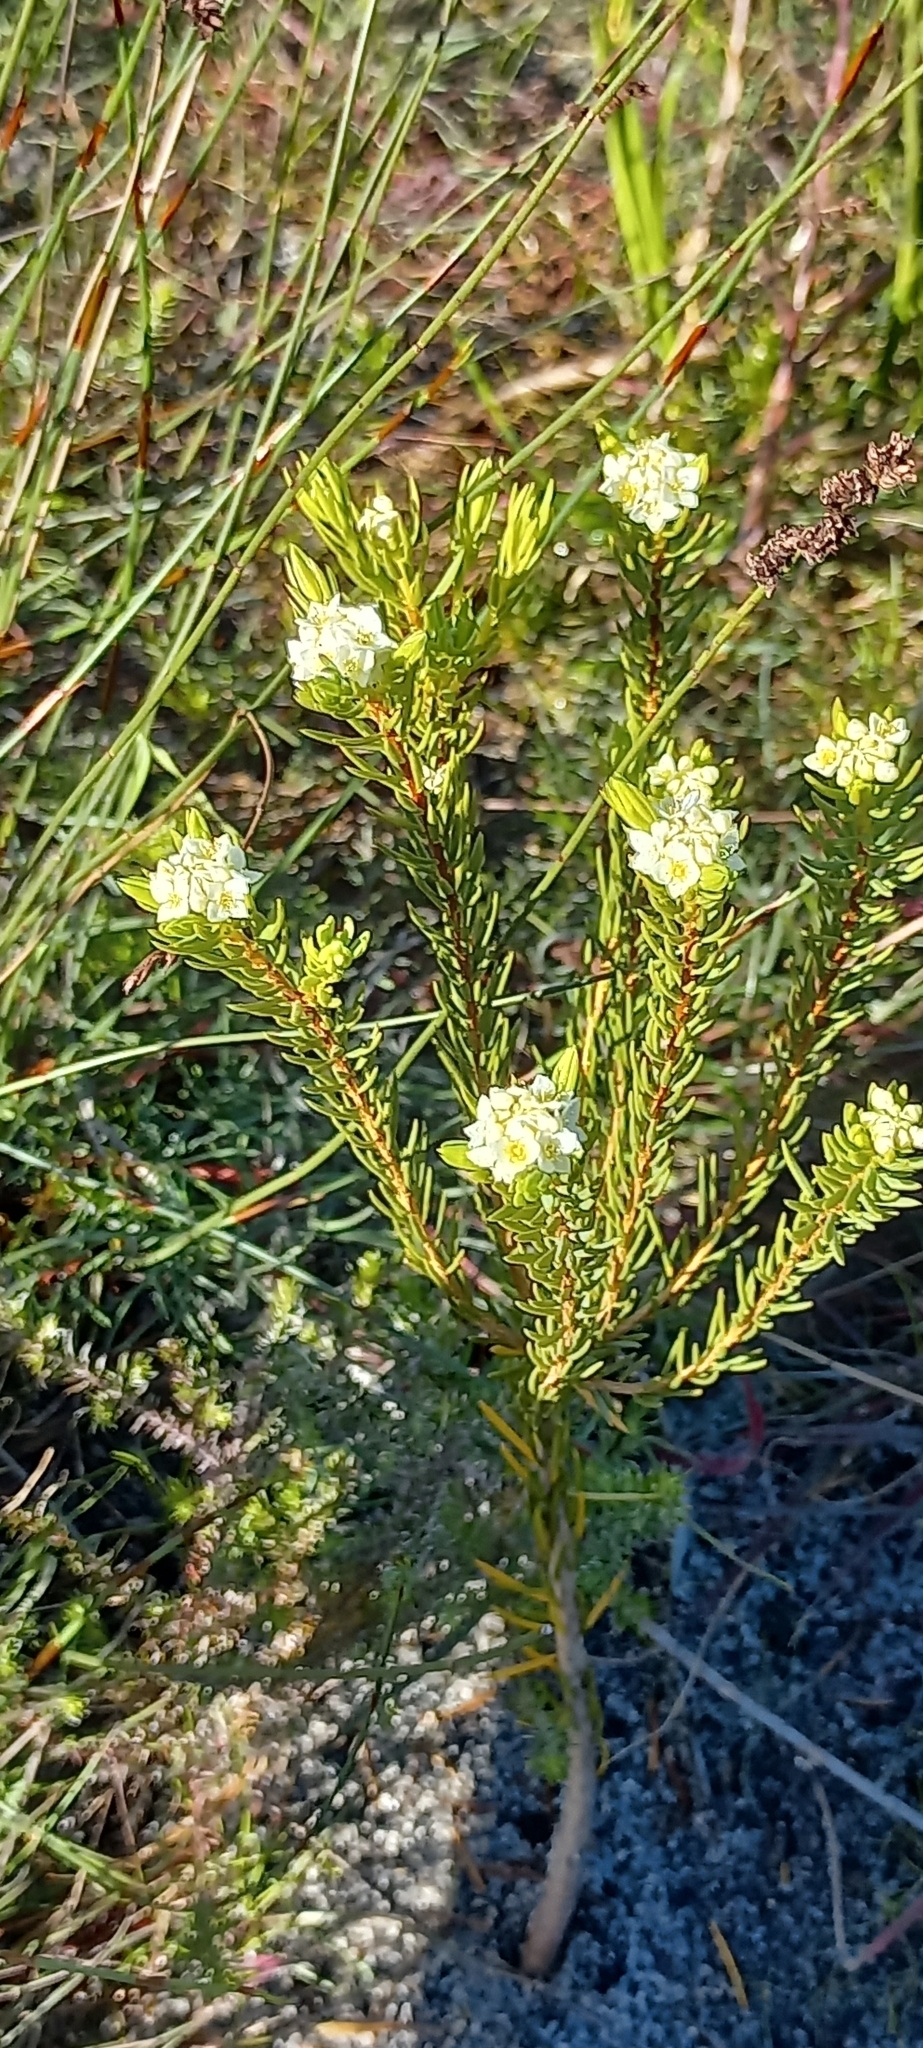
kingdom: Plantae
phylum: Tracheophyta
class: Magnoliopsida
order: Malvales
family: Thymelaeaceae
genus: Lachnaea
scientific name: Lachnaea densiflora
